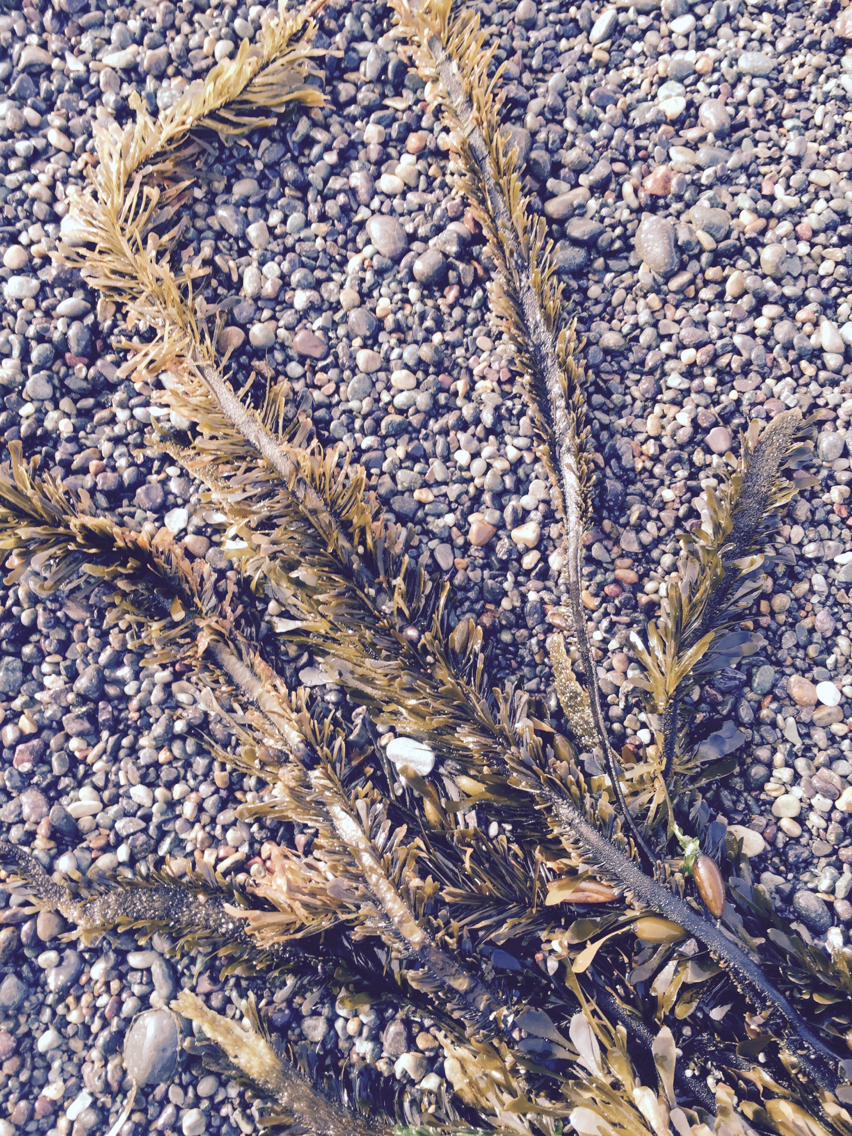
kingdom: Chromista
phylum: Ochrophyta
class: Phaeophyceae
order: Laminariales
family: Lessoniaceae
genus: Egregia
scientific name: Egregia menziesii
